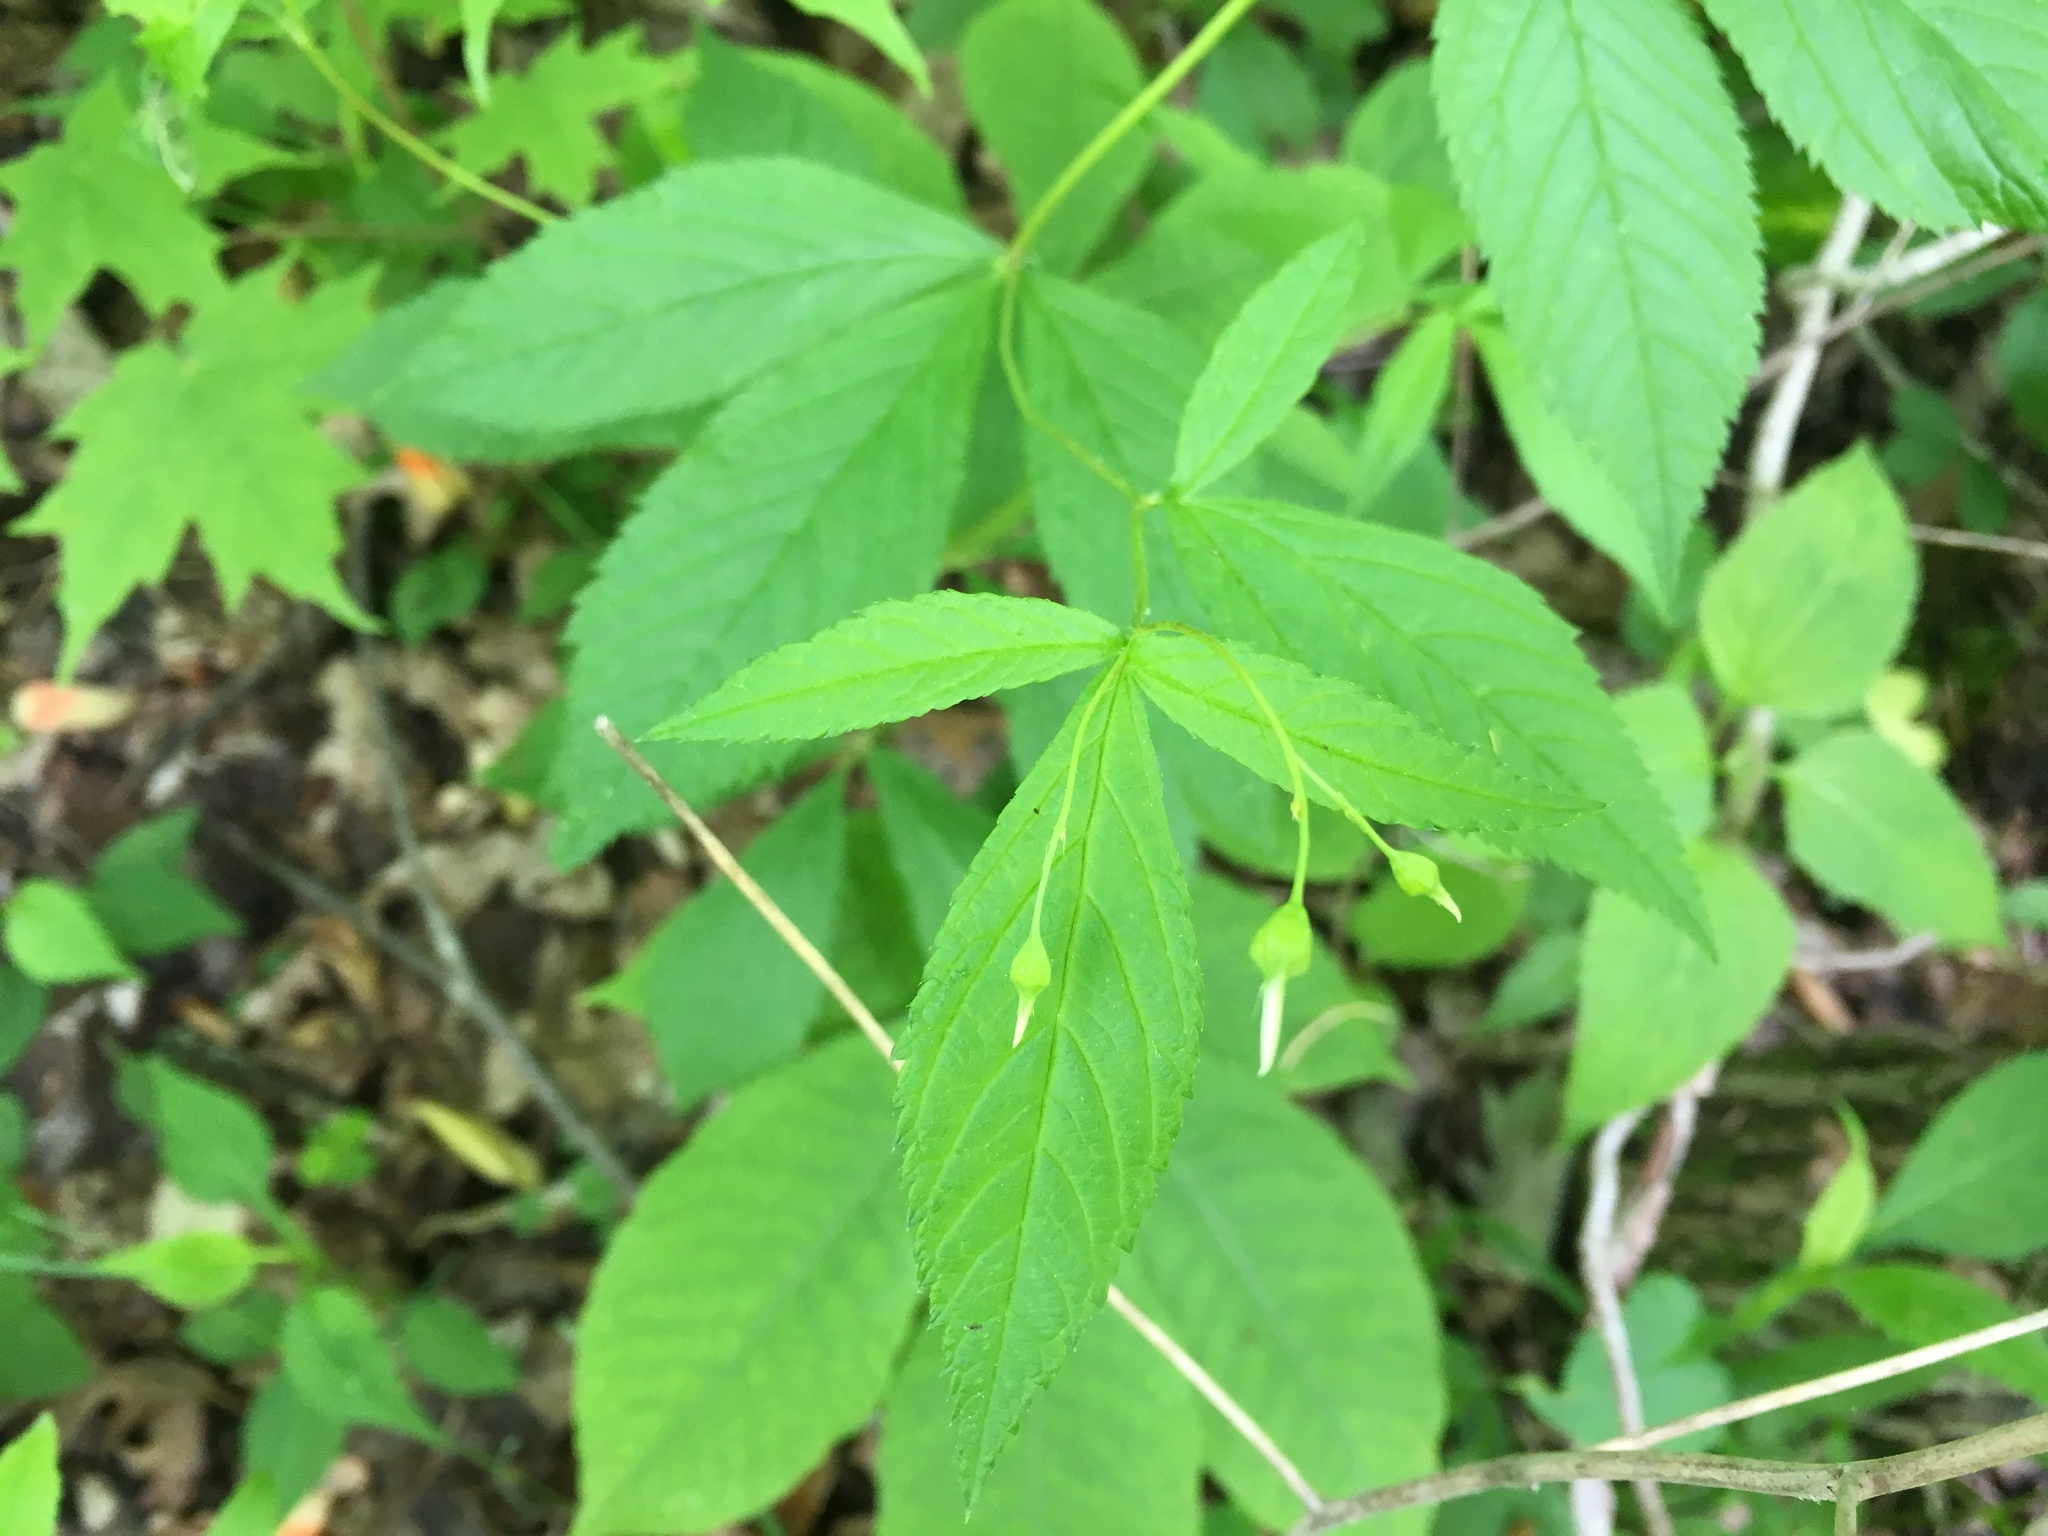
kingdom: Plantae
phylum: Tracheophyta
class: Magnoliopsida
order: Rosales
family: Rosaceae
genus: Gillenia
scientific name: Gillenia trifoliata
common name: Bowman's-root
